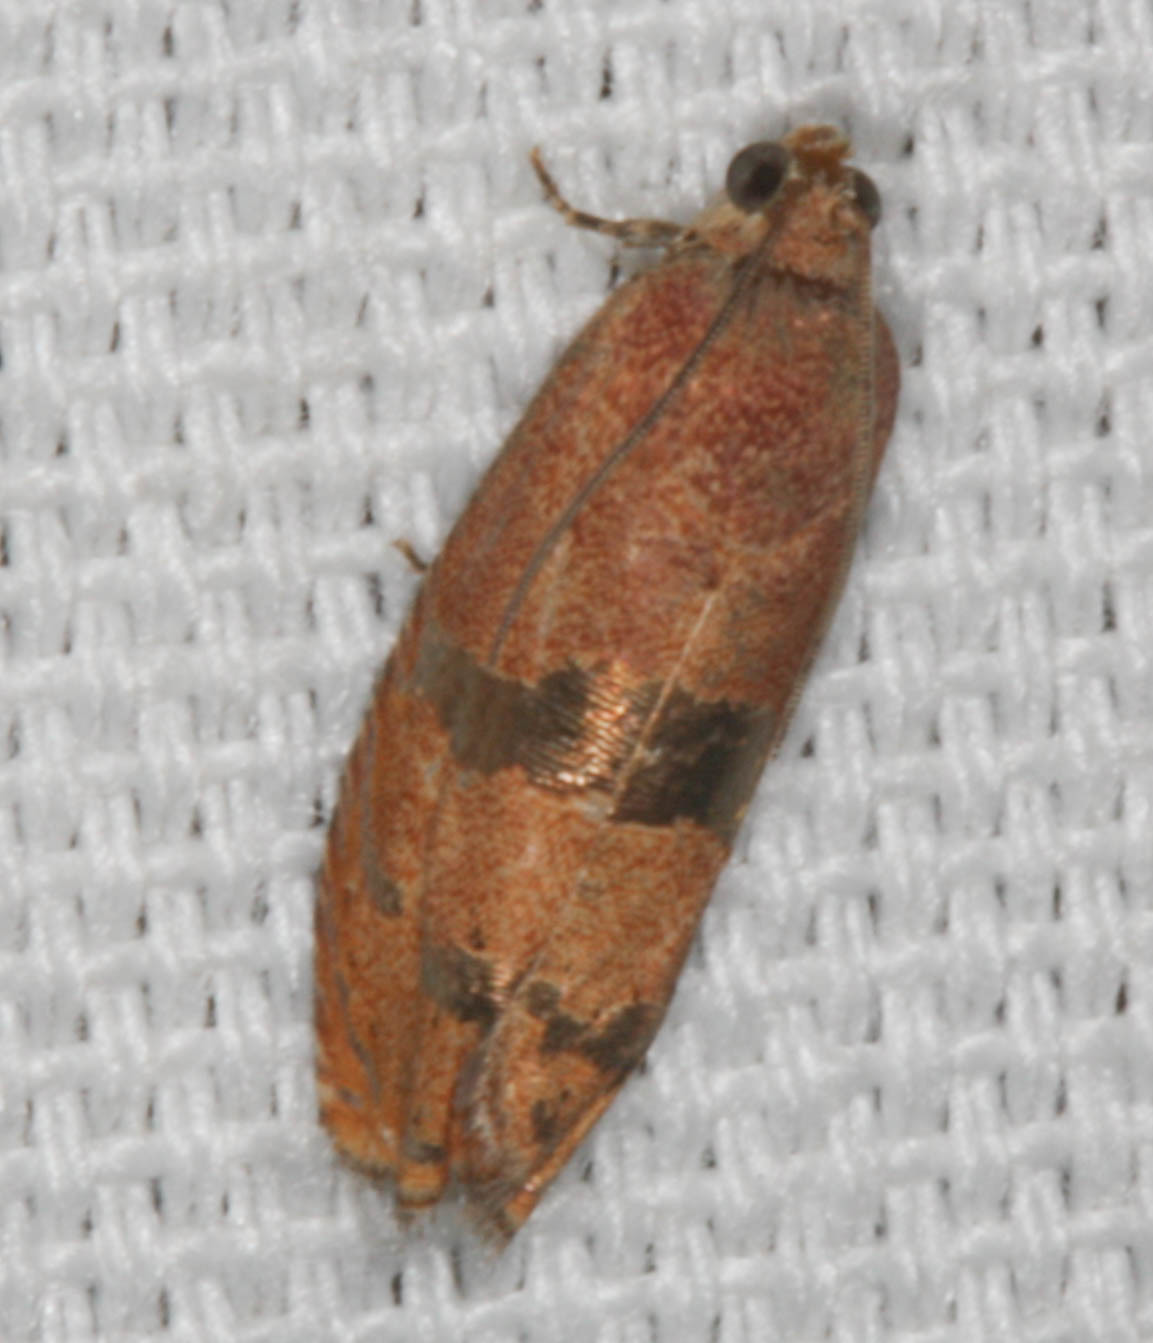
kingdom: Animalia
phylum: Arthropoda
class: Insecta
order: Lepidoptera
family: Tortricidae
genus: Cydia
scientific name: Cydia latiferreana
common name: Filbertworm moth
